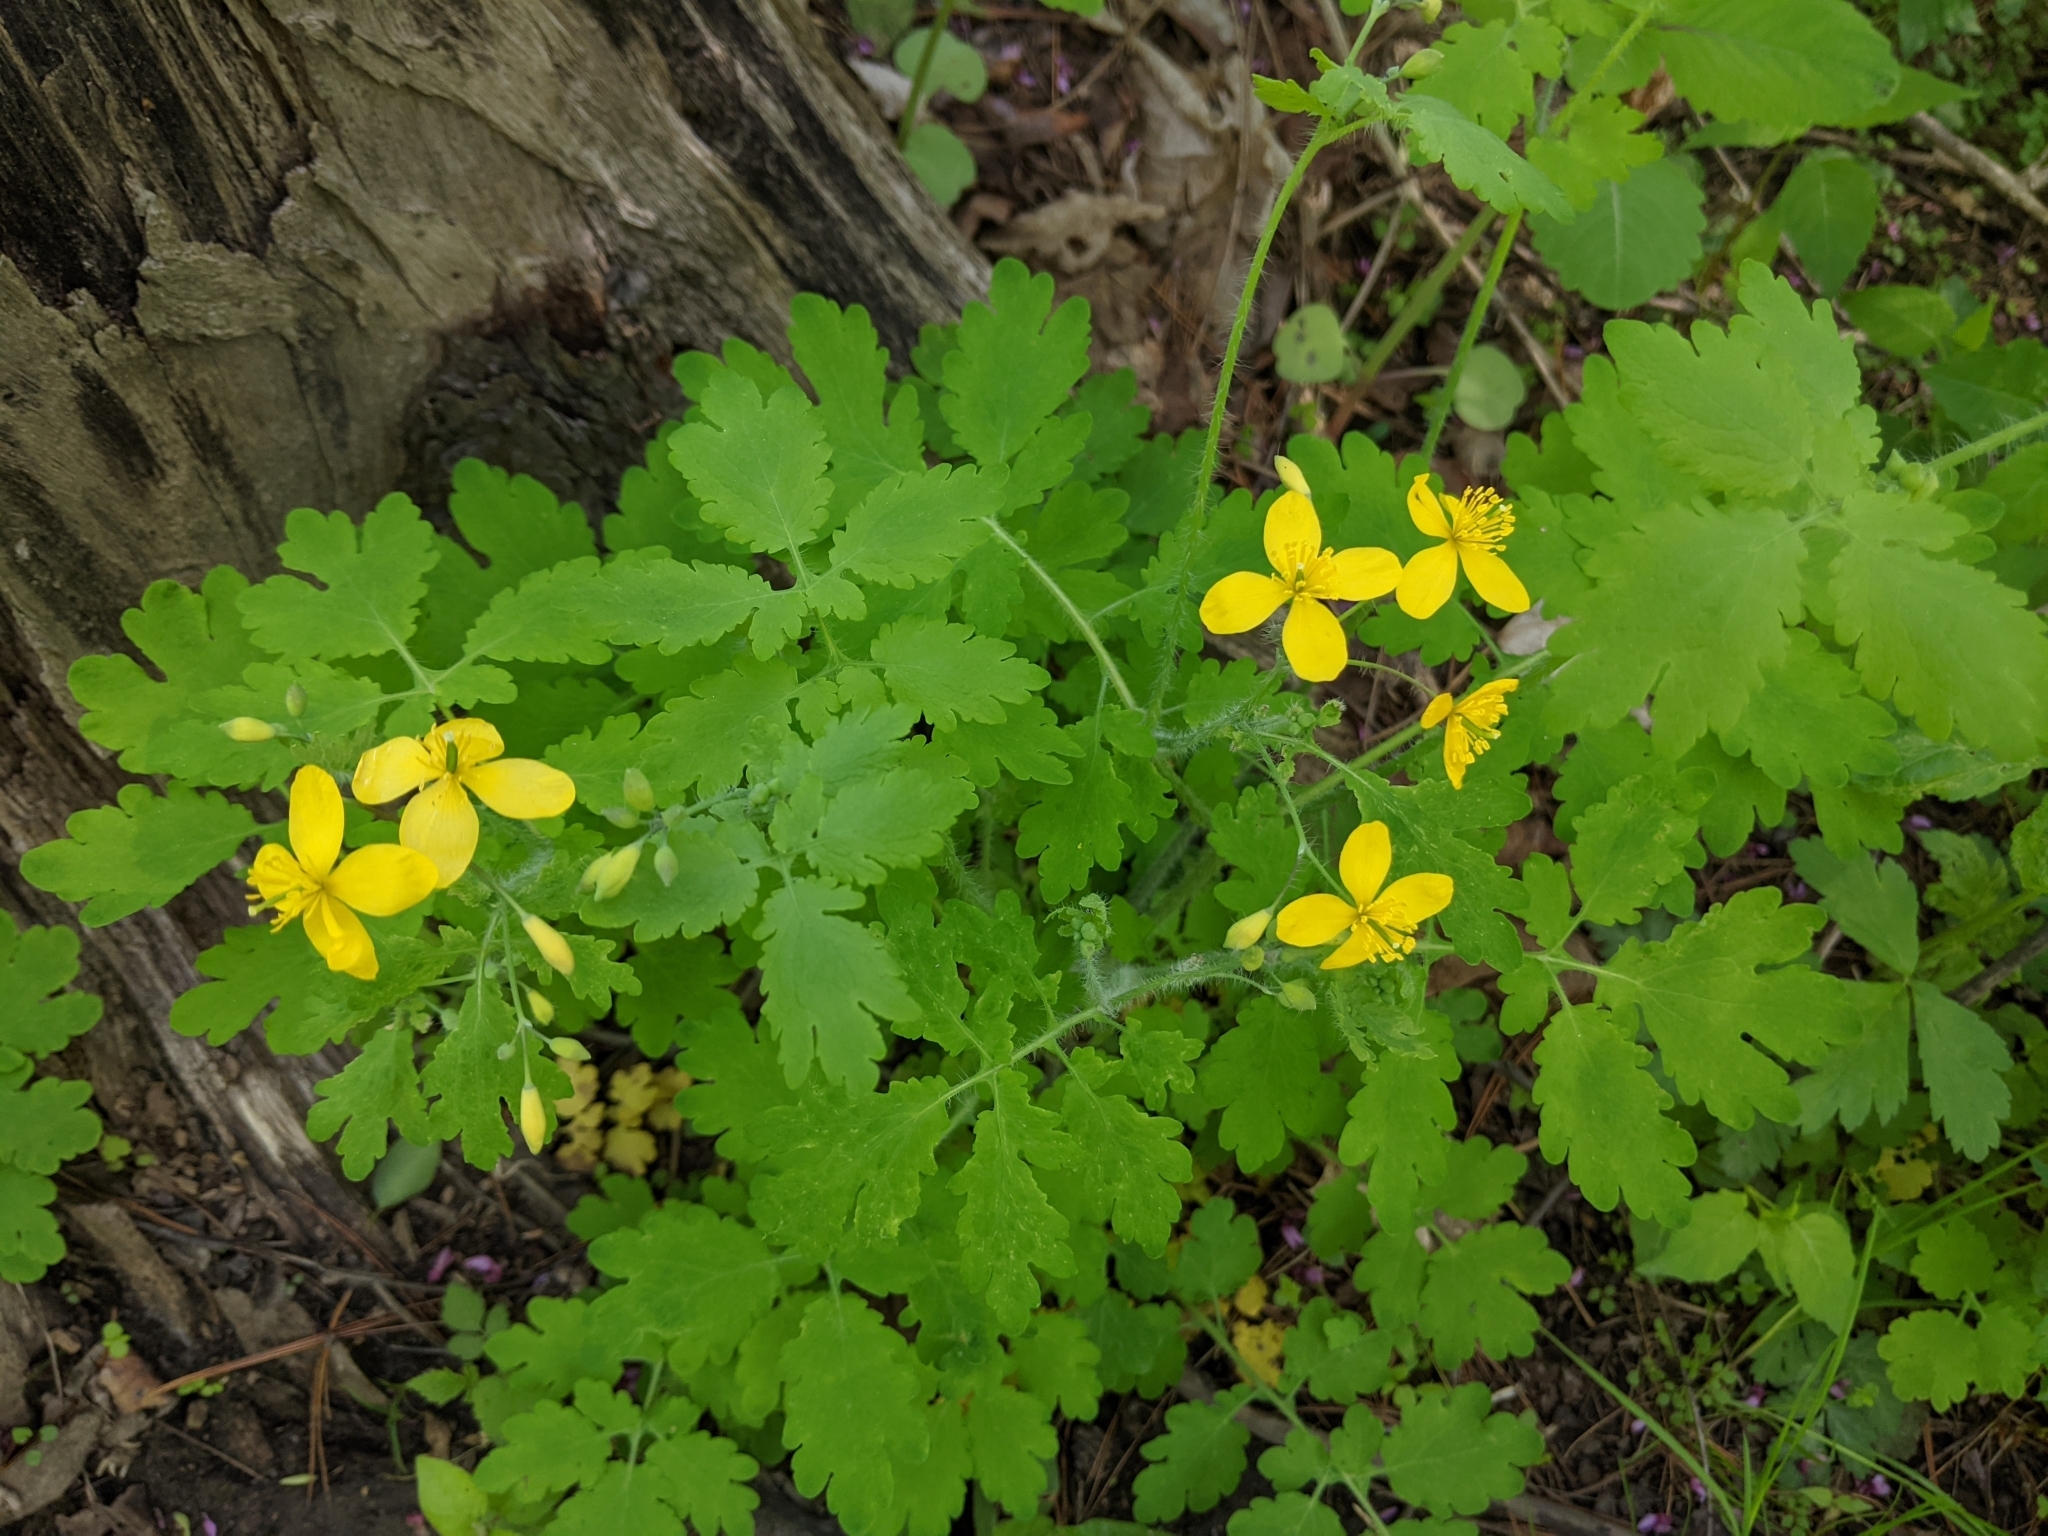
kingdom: Plantae
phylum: Tracheophyta
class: Magnoliopsida
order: Ranunculales
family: Papaveraceae
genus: Chelidonium
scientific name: Chelidonium majus
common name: Greater celandine
